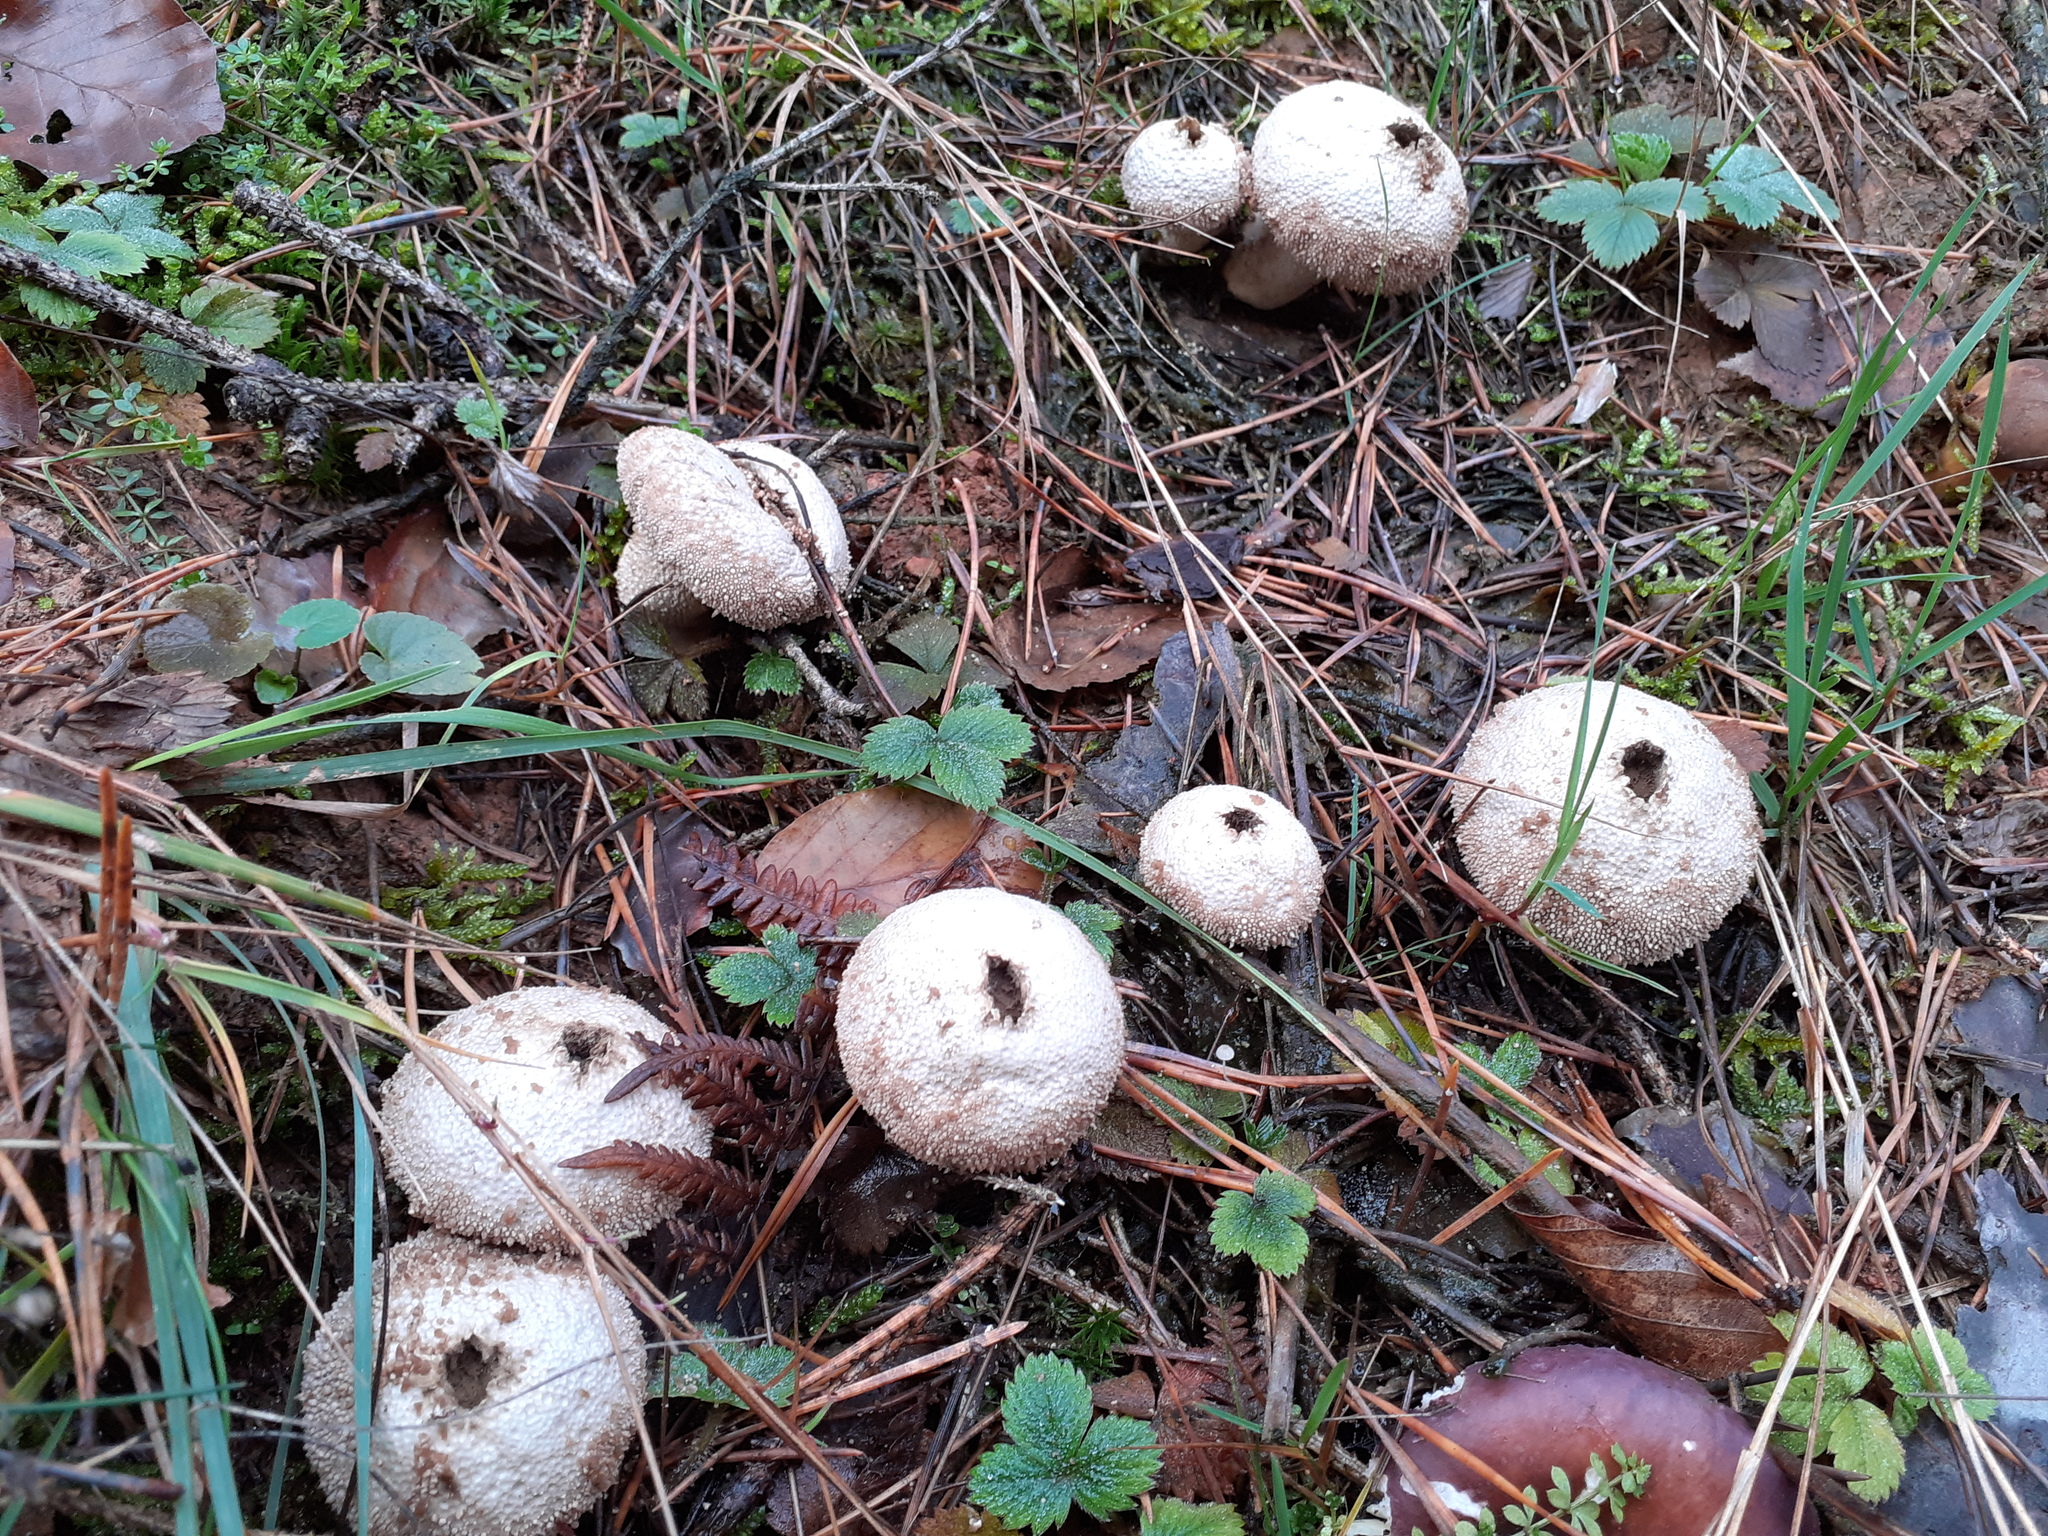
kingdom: Fungi
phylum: Basidiomycota
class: Agaricomycetes
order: Agaricales
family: Lycoperdaceae
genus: Lycoperdon
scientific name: Lycoperdon perlatum
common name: Common puffball
